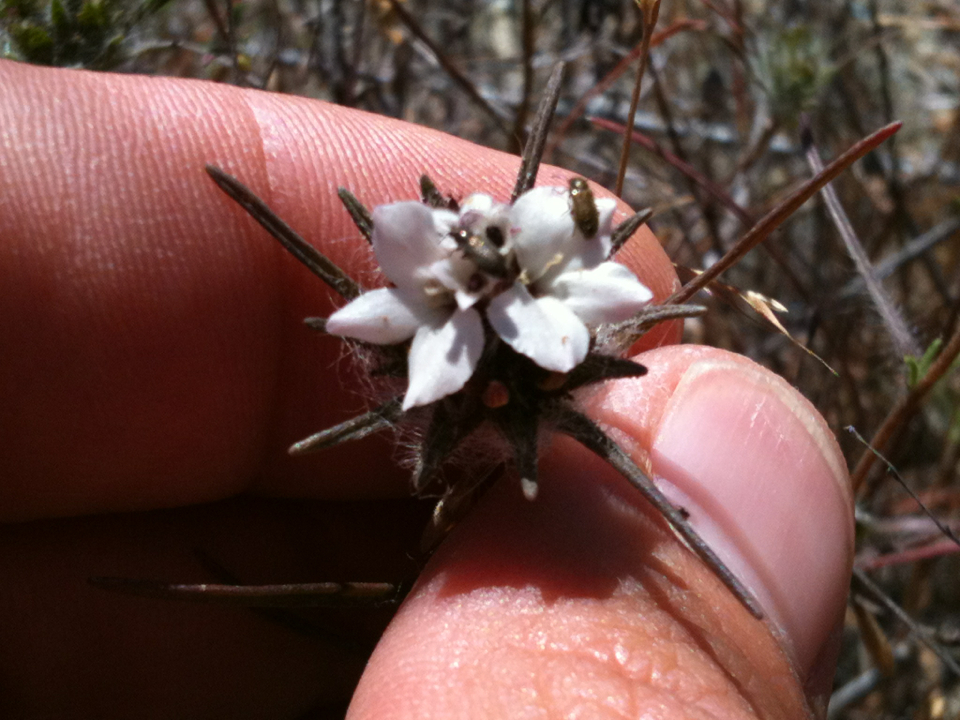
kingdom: Plantae
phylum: Tracheophyta
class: Magnoliopsida
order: Asterales
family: Asteraceae
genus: Calycadenia
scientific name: Calycadenia multiglandulosa
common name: Sticky calycadenia
